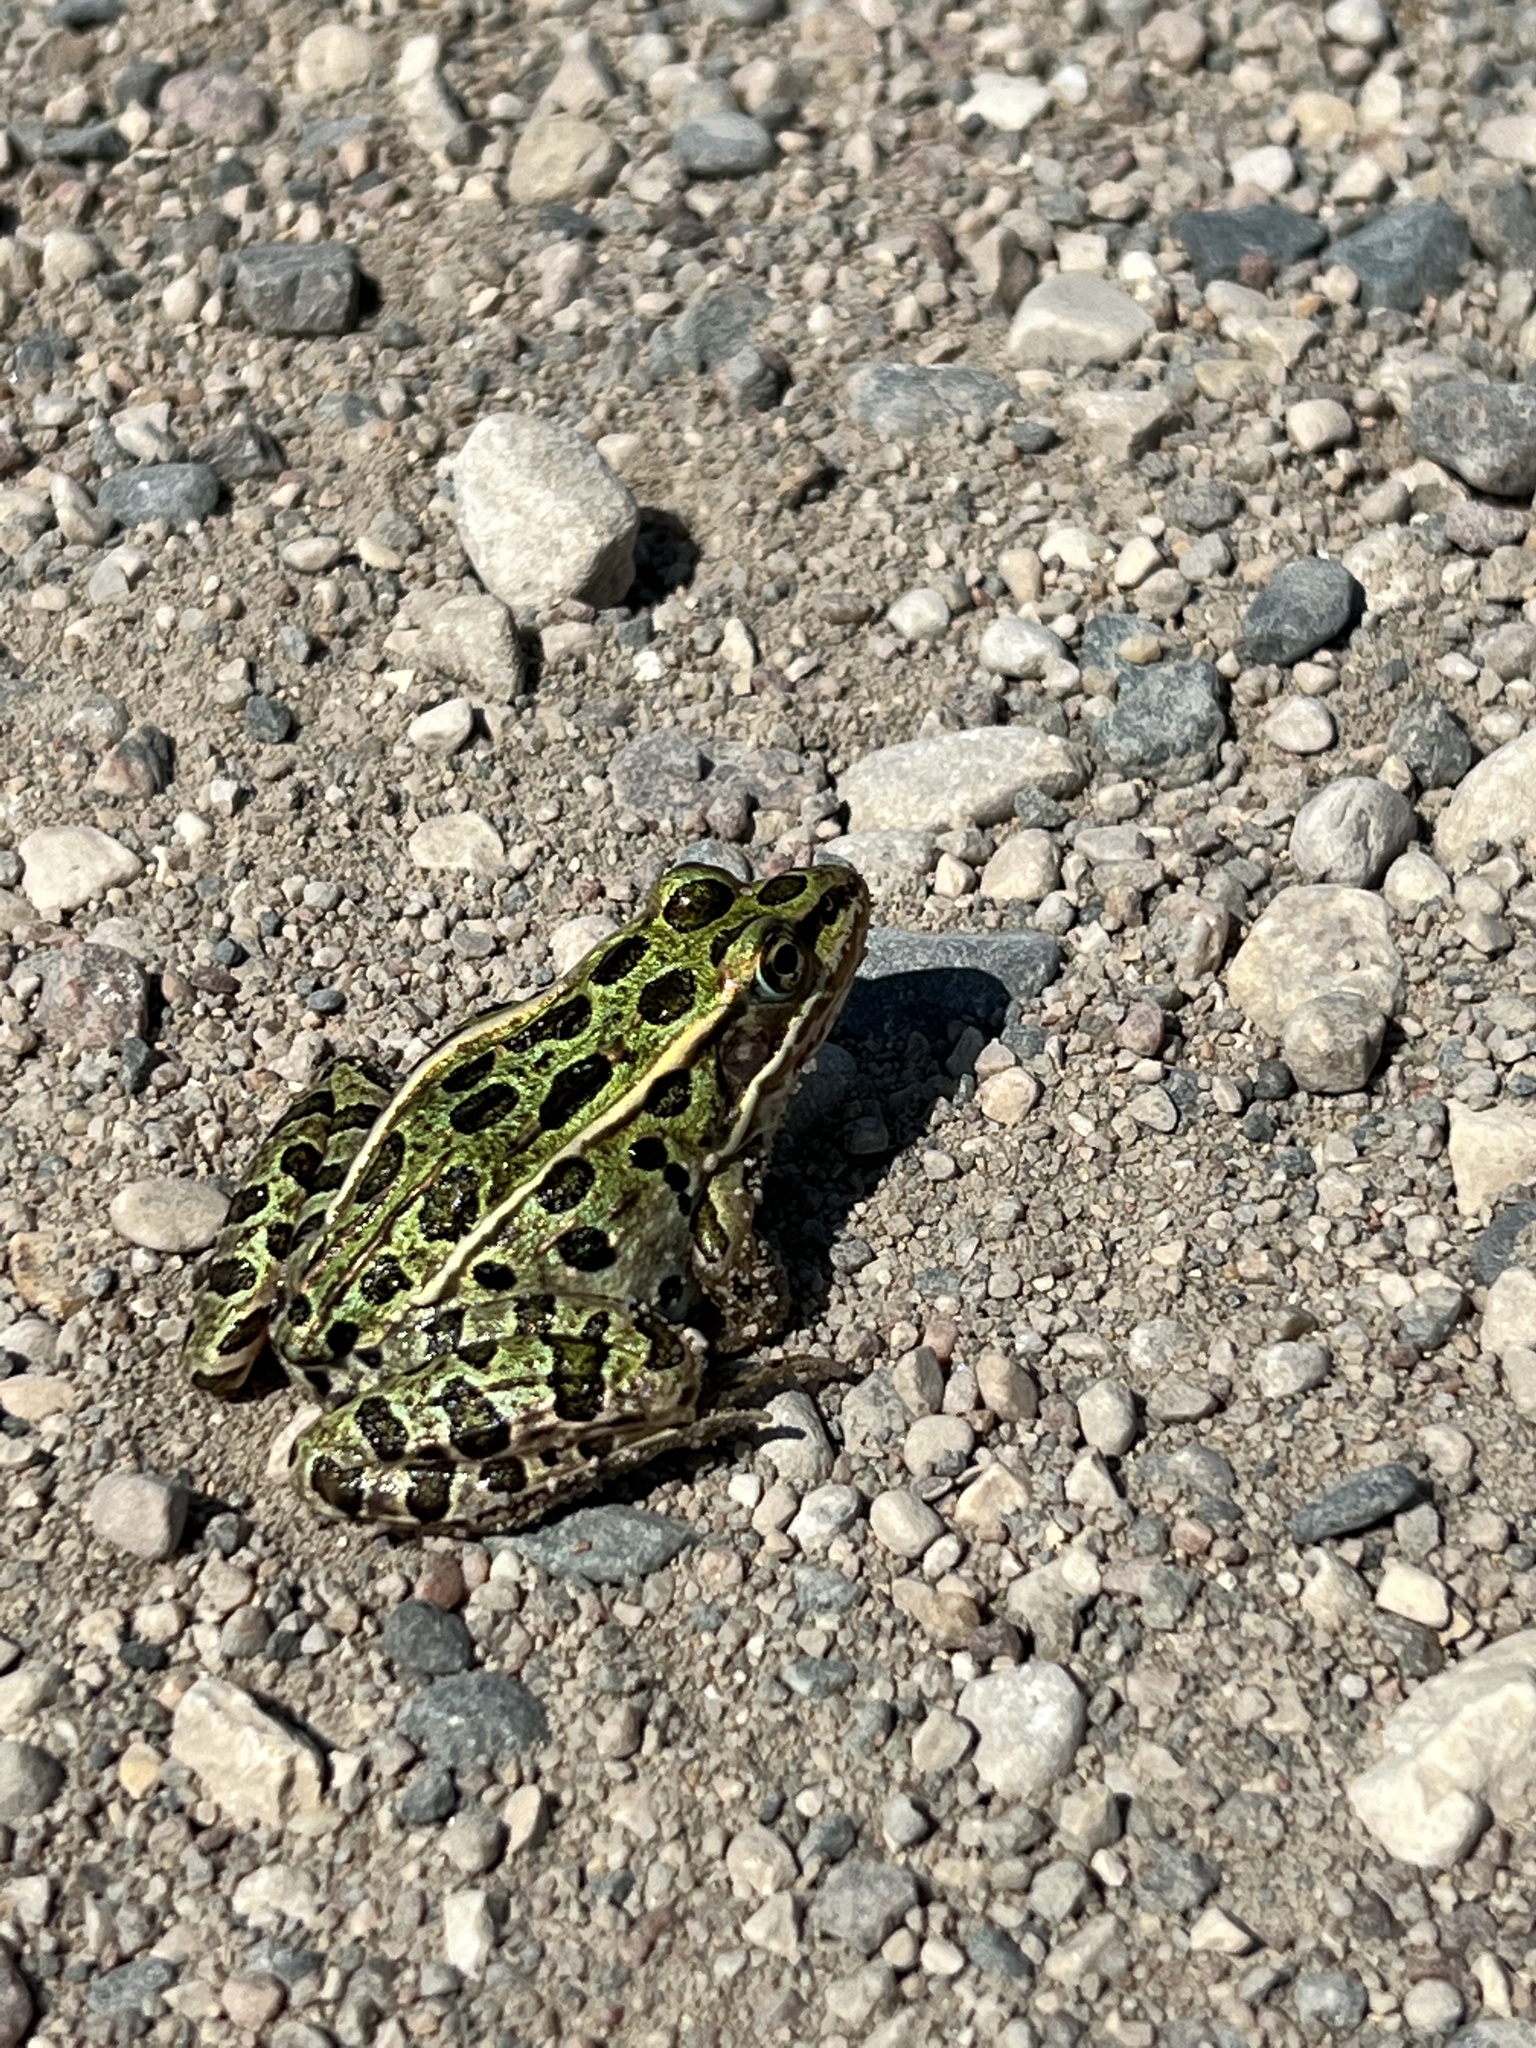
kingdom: Animalia
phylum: Chordata
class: Amphibia
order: Anura
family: Ranidae
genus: Lithobates
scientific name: Lithobates pipiens
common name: Northern leopard frog
